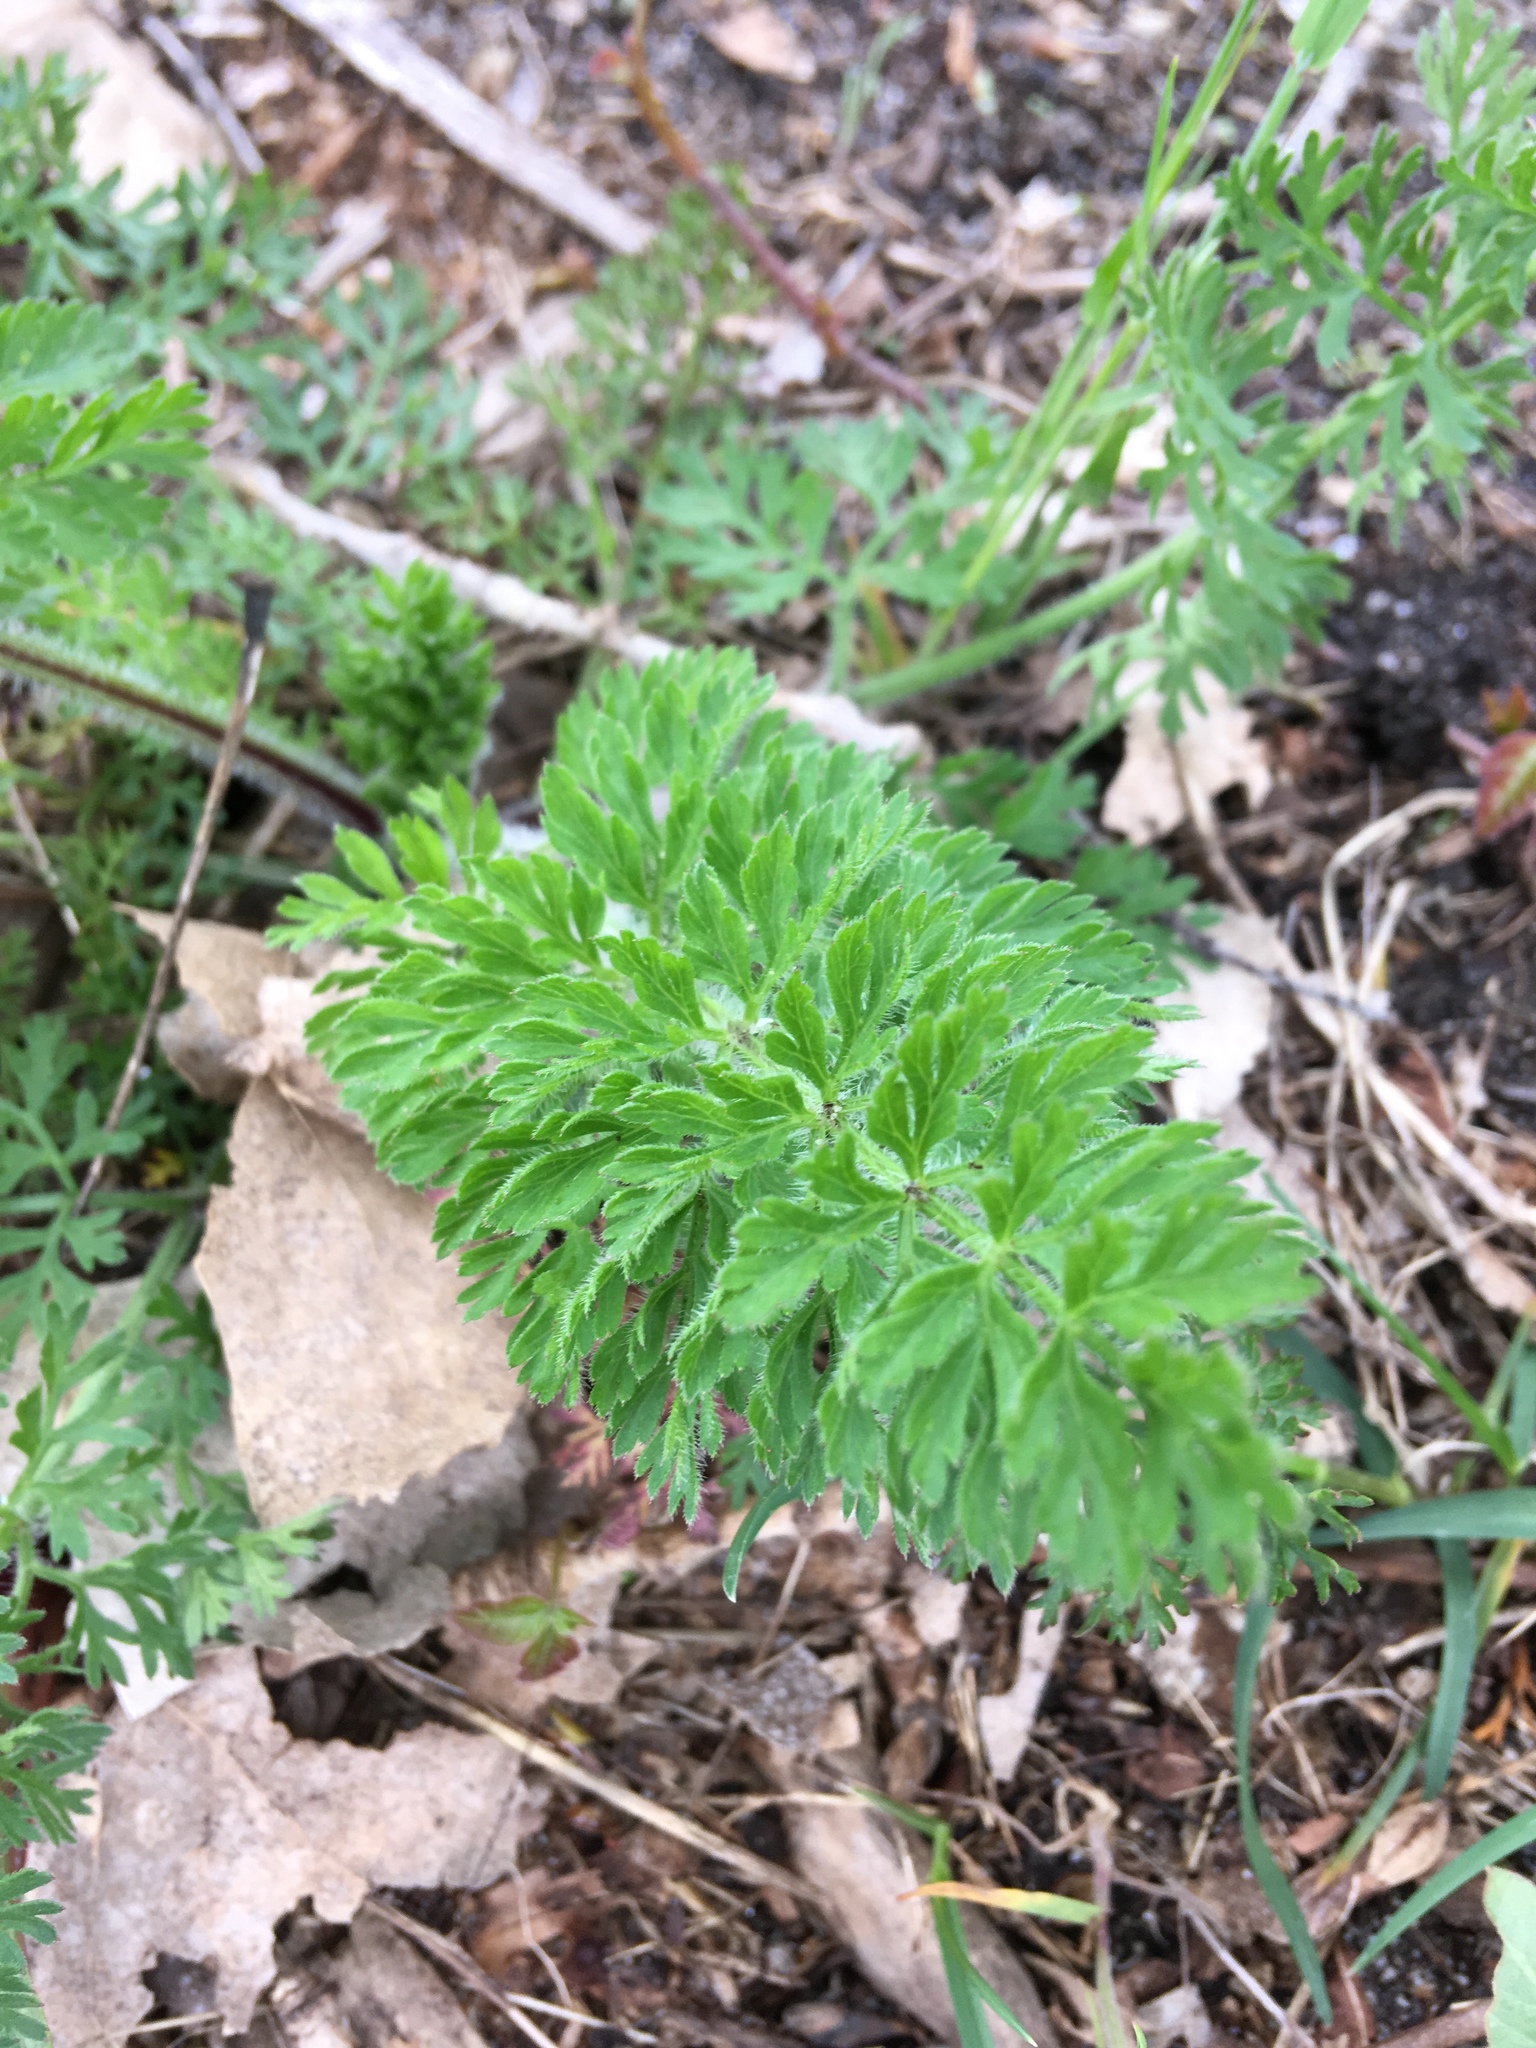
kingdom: Plantae
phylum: Tracheophyta
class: Magnoliopsida
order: Apiales
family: Apiaceae
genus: Daucus
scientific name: Daucus carota
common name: Wild carrot
